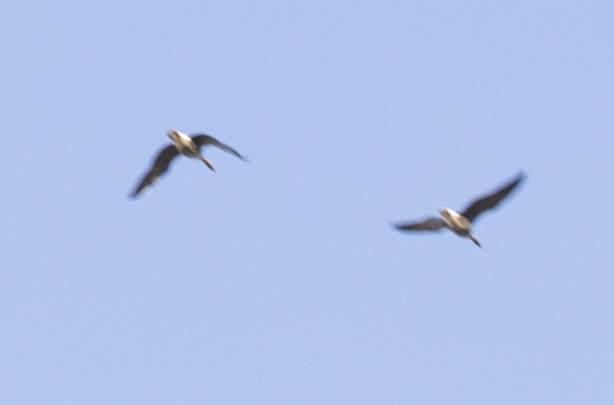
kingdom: Animalia
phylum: Chordata
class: Aves
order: Anseriformes
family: Anatidae
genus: Anser
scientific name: Anser albifrons
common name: Greater white-fronted goose
